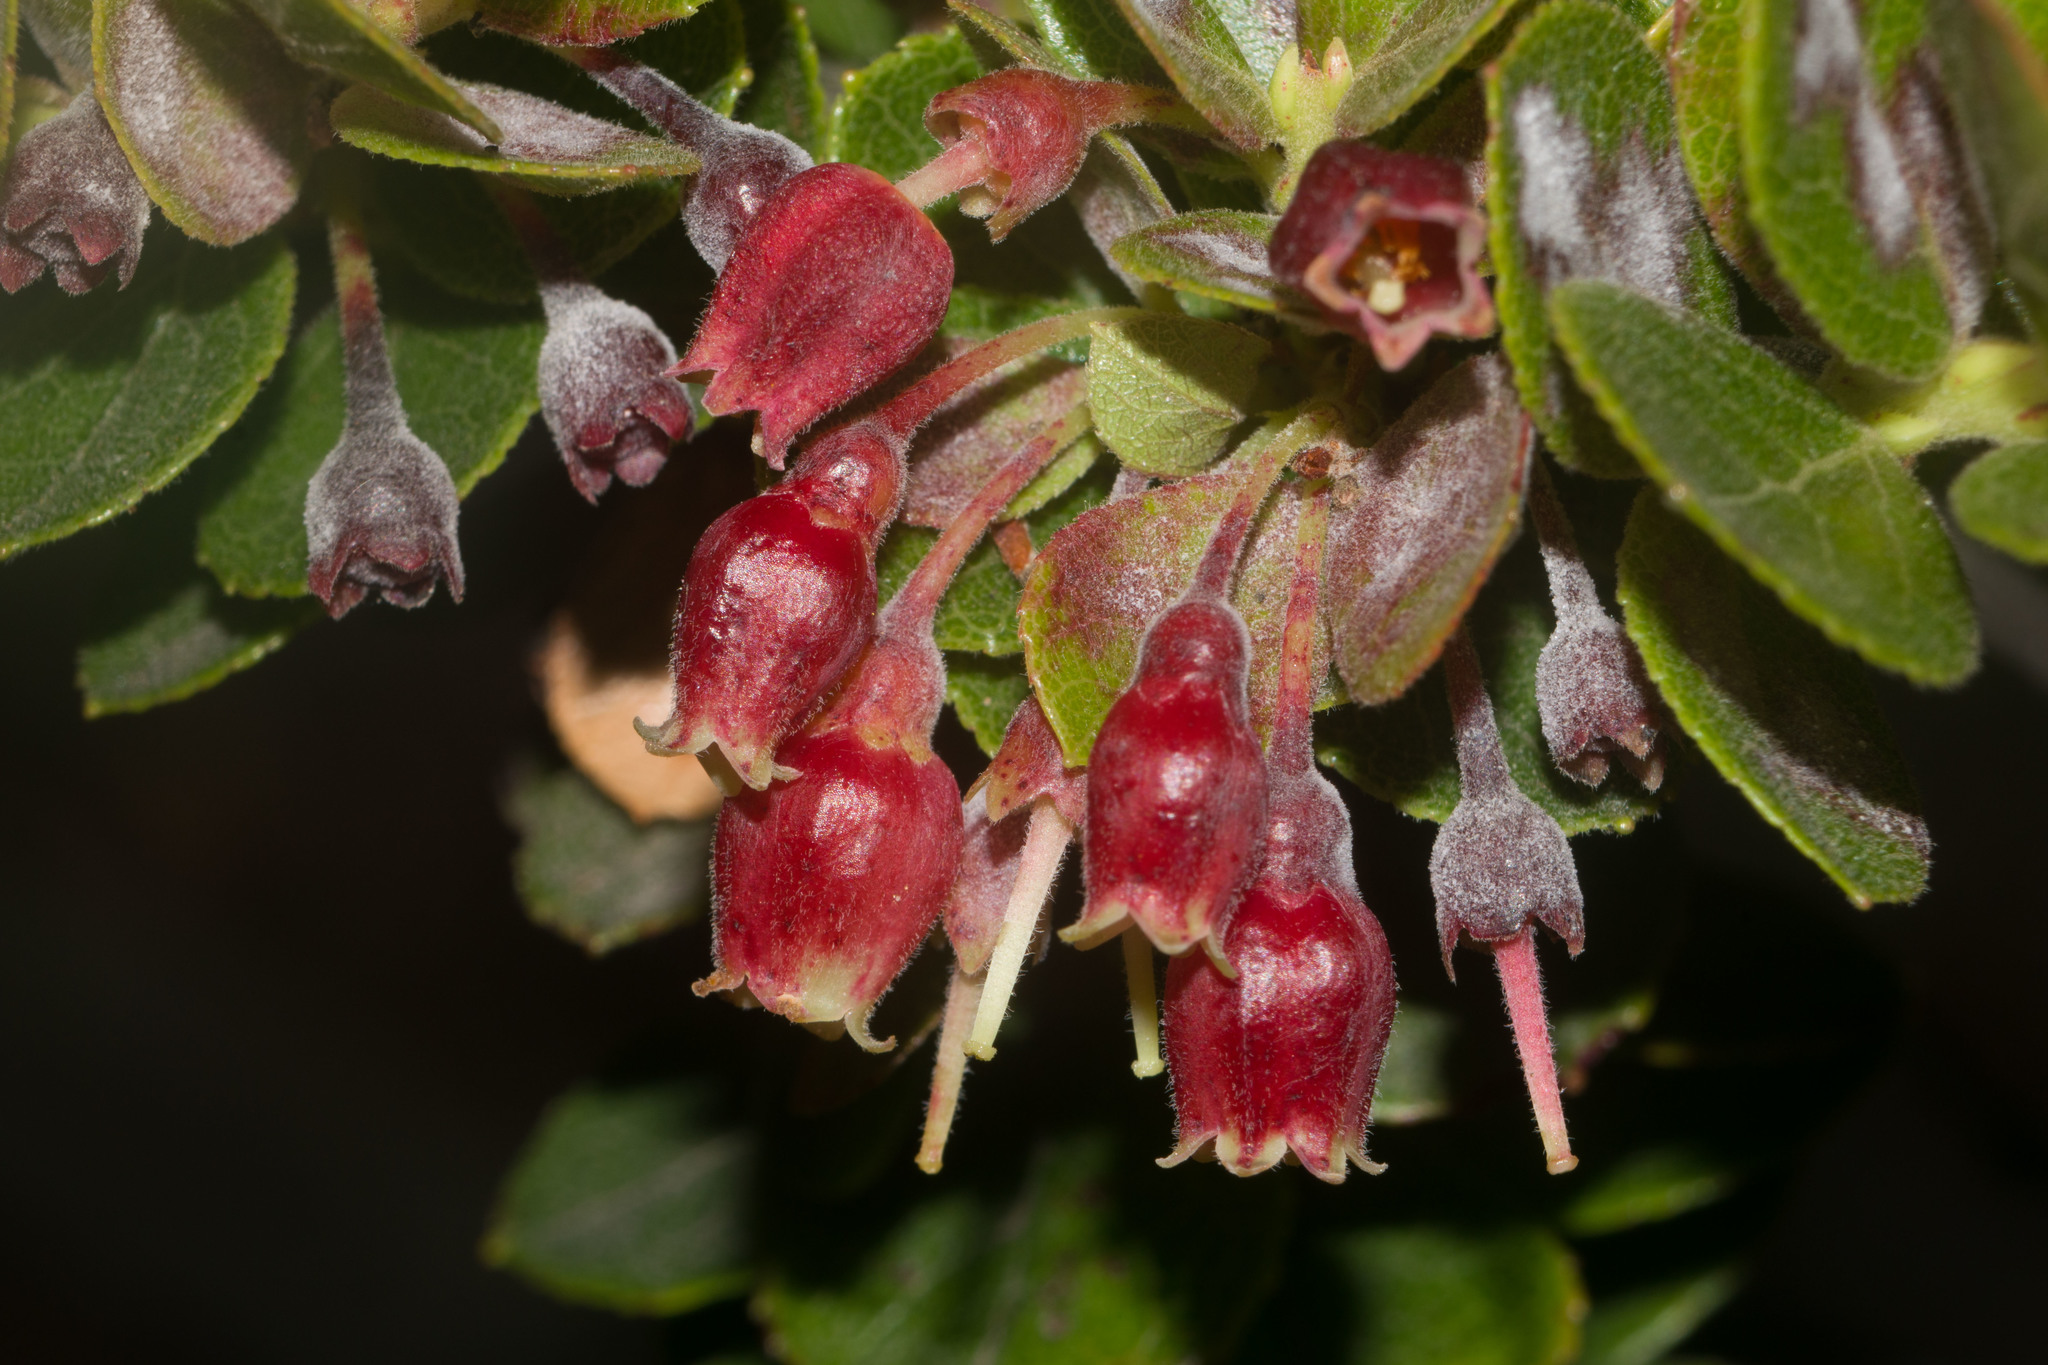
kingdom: Plantae
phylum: Tracheophyta
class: Magnoliopsida
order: Ericales
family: Ericaceae
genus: Vaccinium
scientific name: Vaccinium reticulatum
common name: Ohelo
